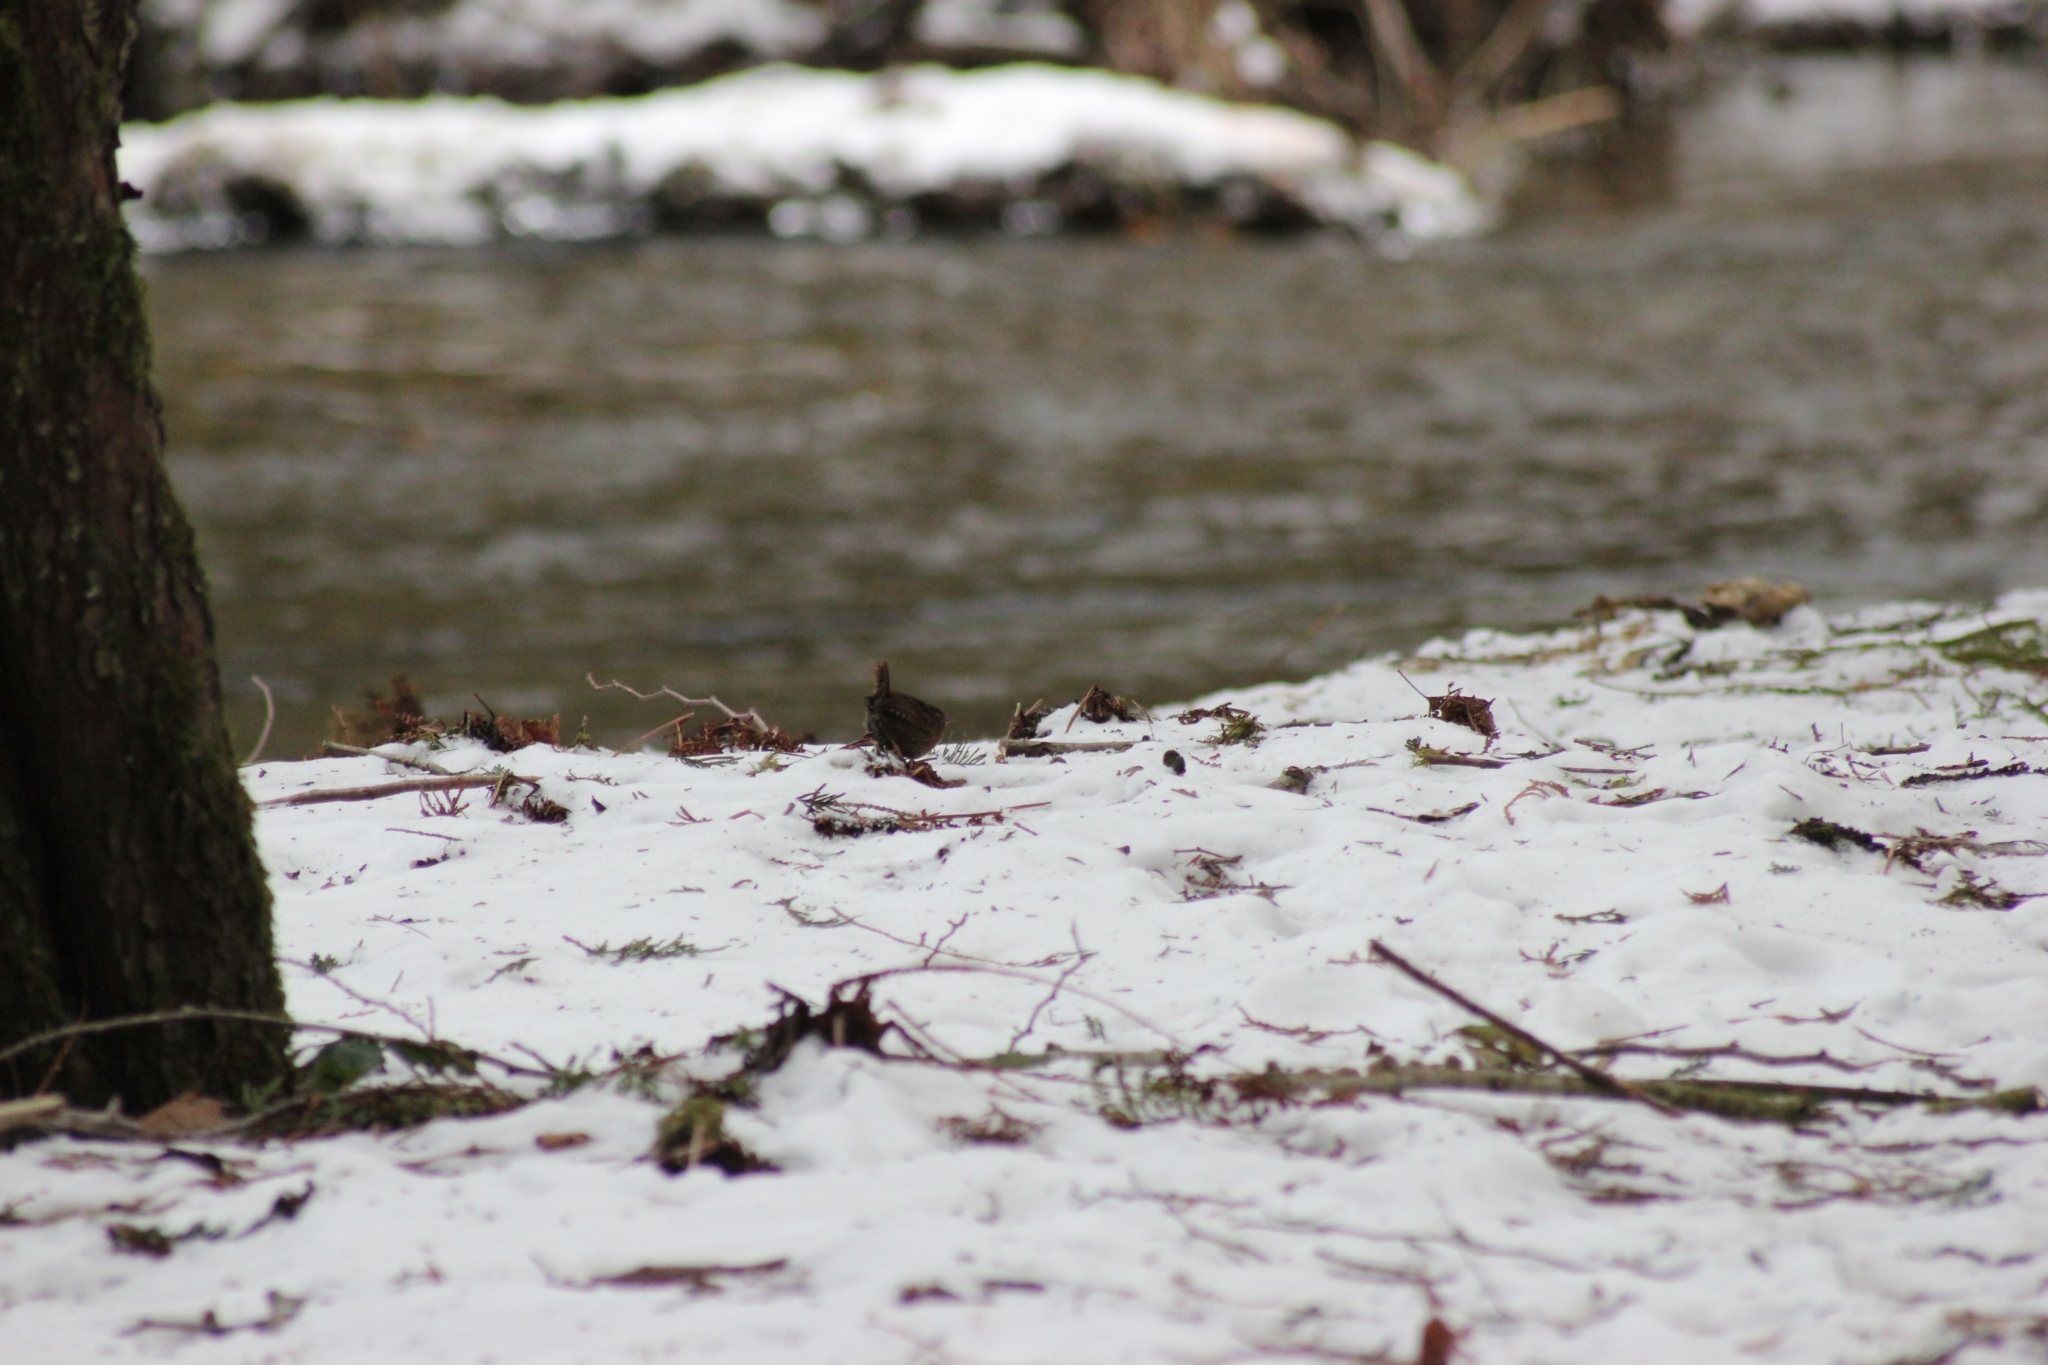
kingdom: Animalia
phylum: Chordata
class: Aves
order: Passeriformes
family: Troglodytidae
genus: Troglodytes
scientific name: Troglodytes pacificus
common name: Pacific wren
